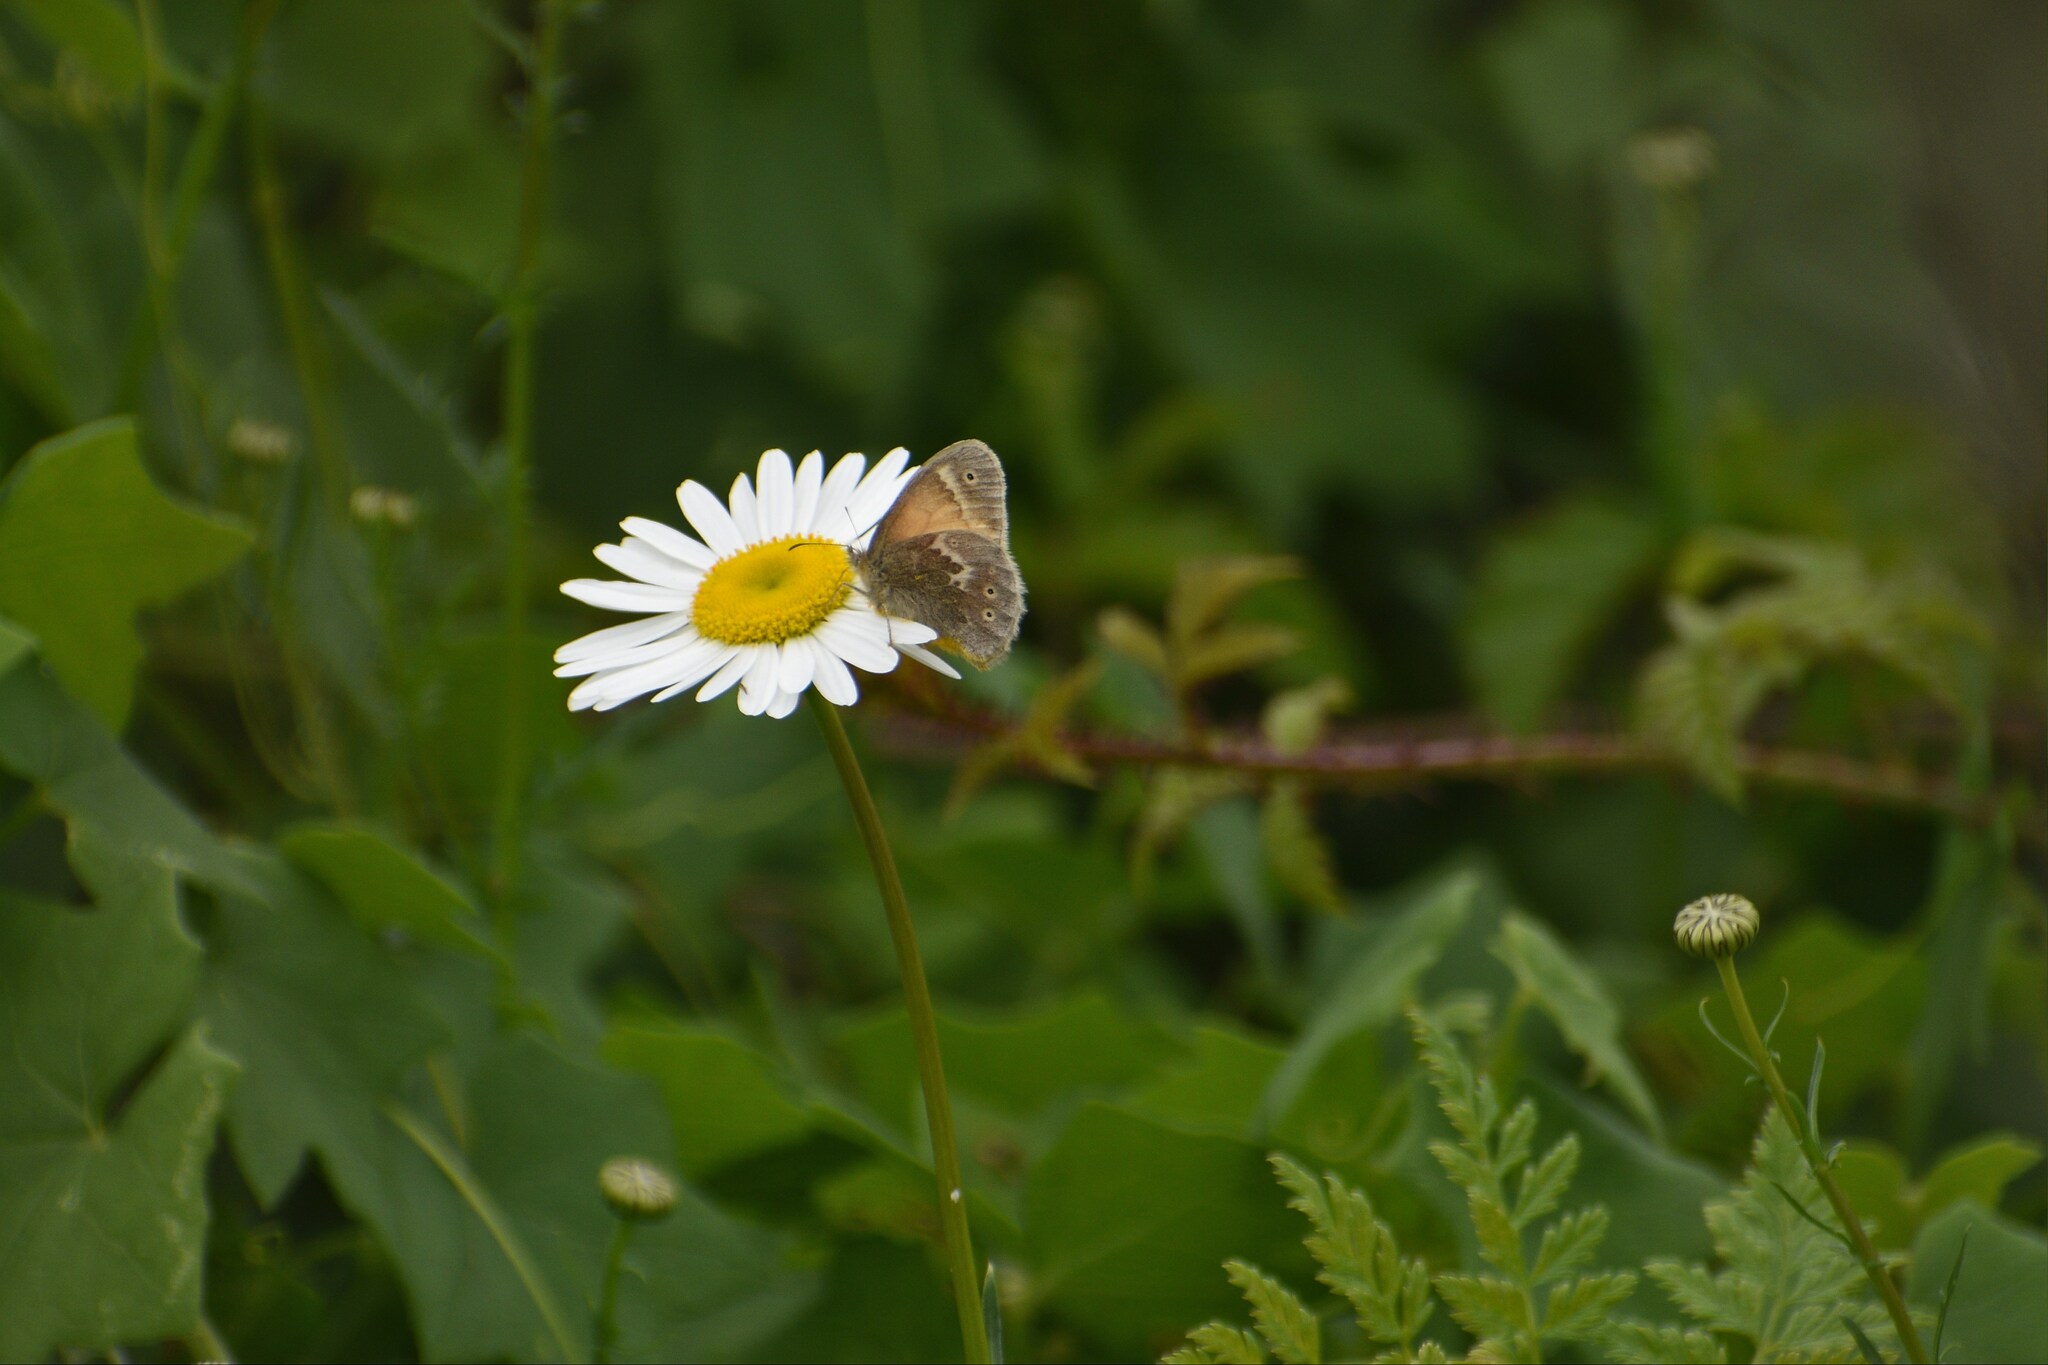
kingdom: Animalia
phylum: Arthropoda
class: Insecta
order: Lepidoptera
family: Nymphalidae
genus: Coenonympha
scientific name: Coenonympha california
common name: Common ringlet
